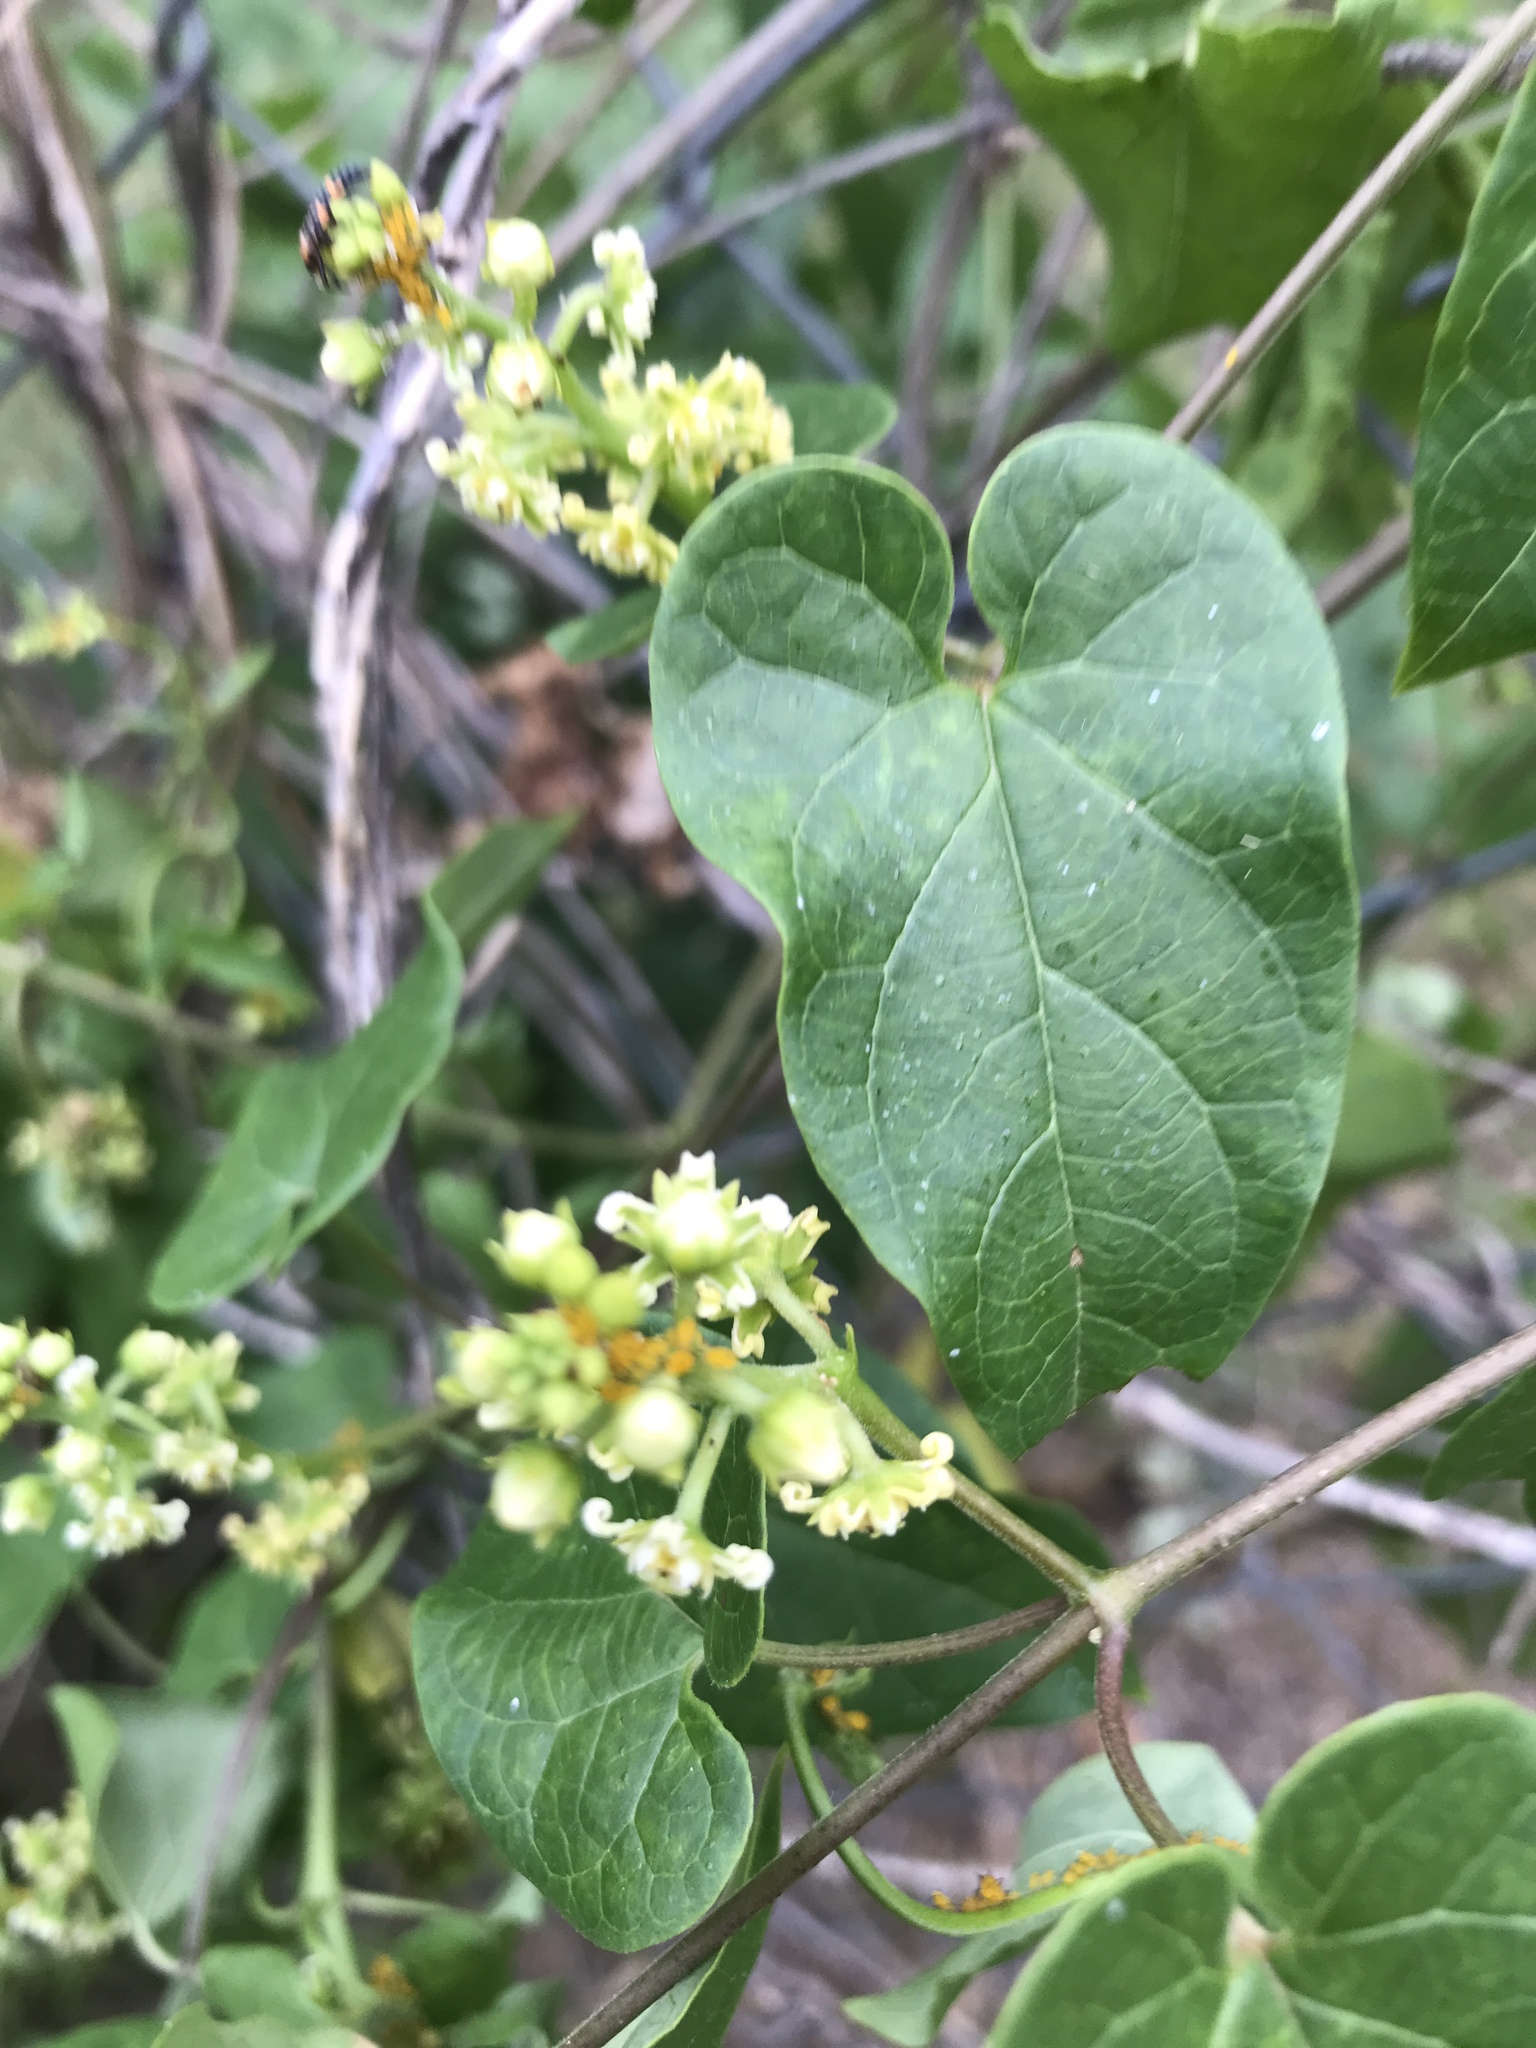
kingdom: Plantae
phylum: Tracheophyta
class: Magnoliopsida
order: Gentianales
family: Apocynaceae
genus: Cynanchum
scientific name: Cynanchum racemosum
